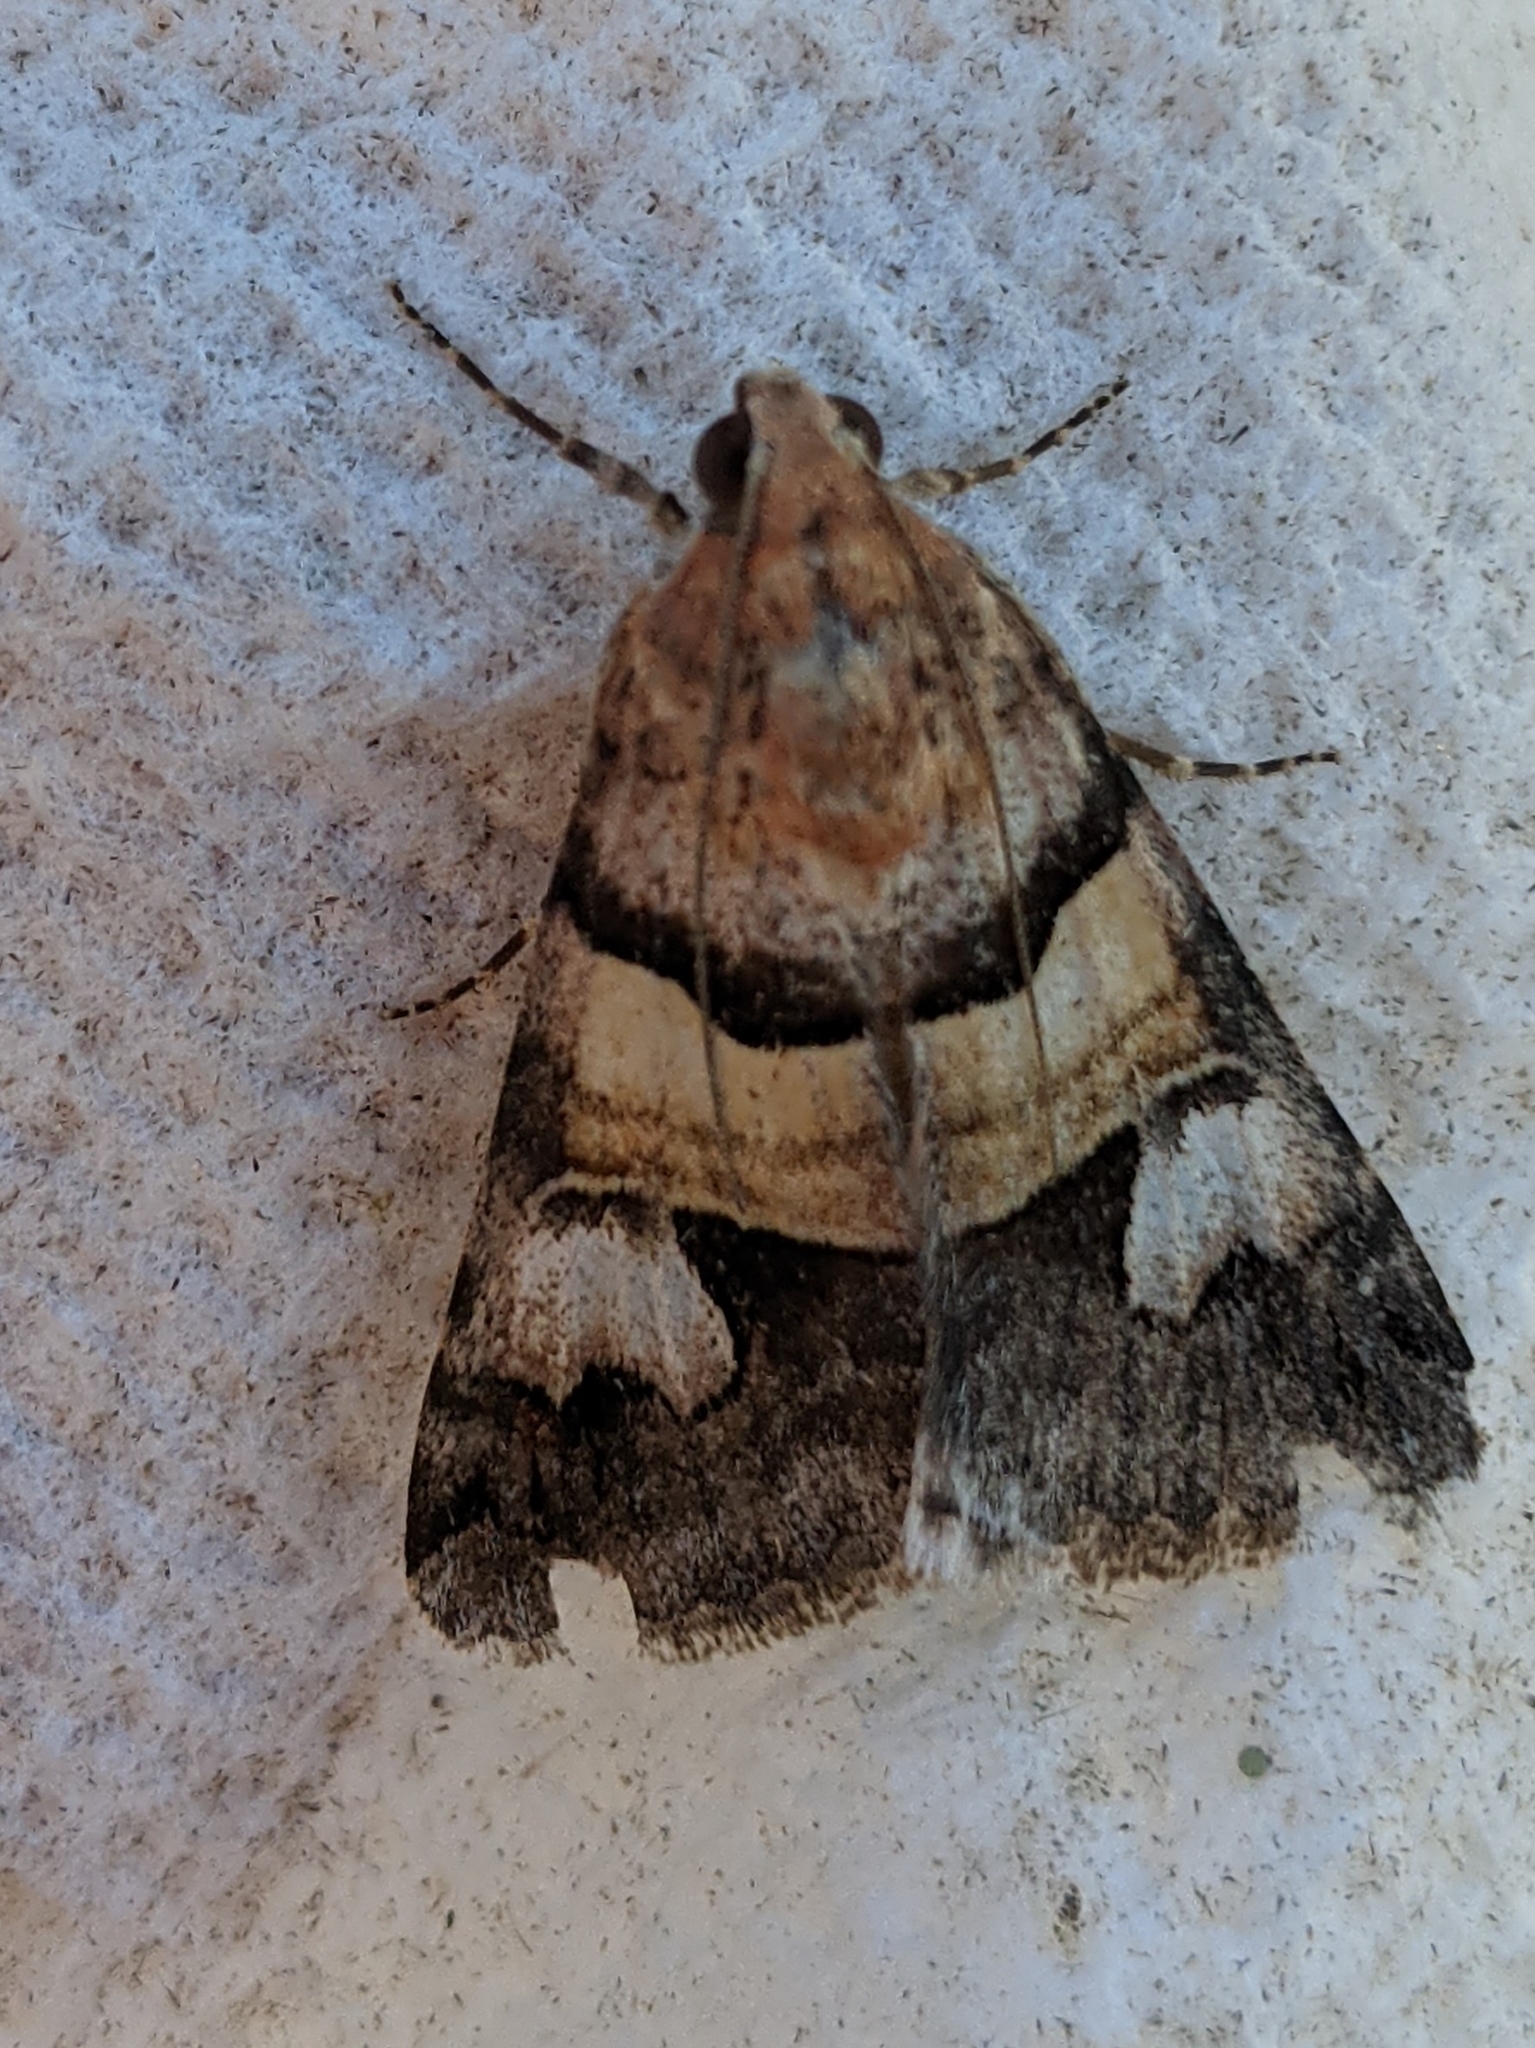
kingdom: Animalia
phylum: Arthropoda
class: Insecta
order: Lepidoptera
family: Erebidae
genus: Drasteria
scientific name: Drasteria pallescens
